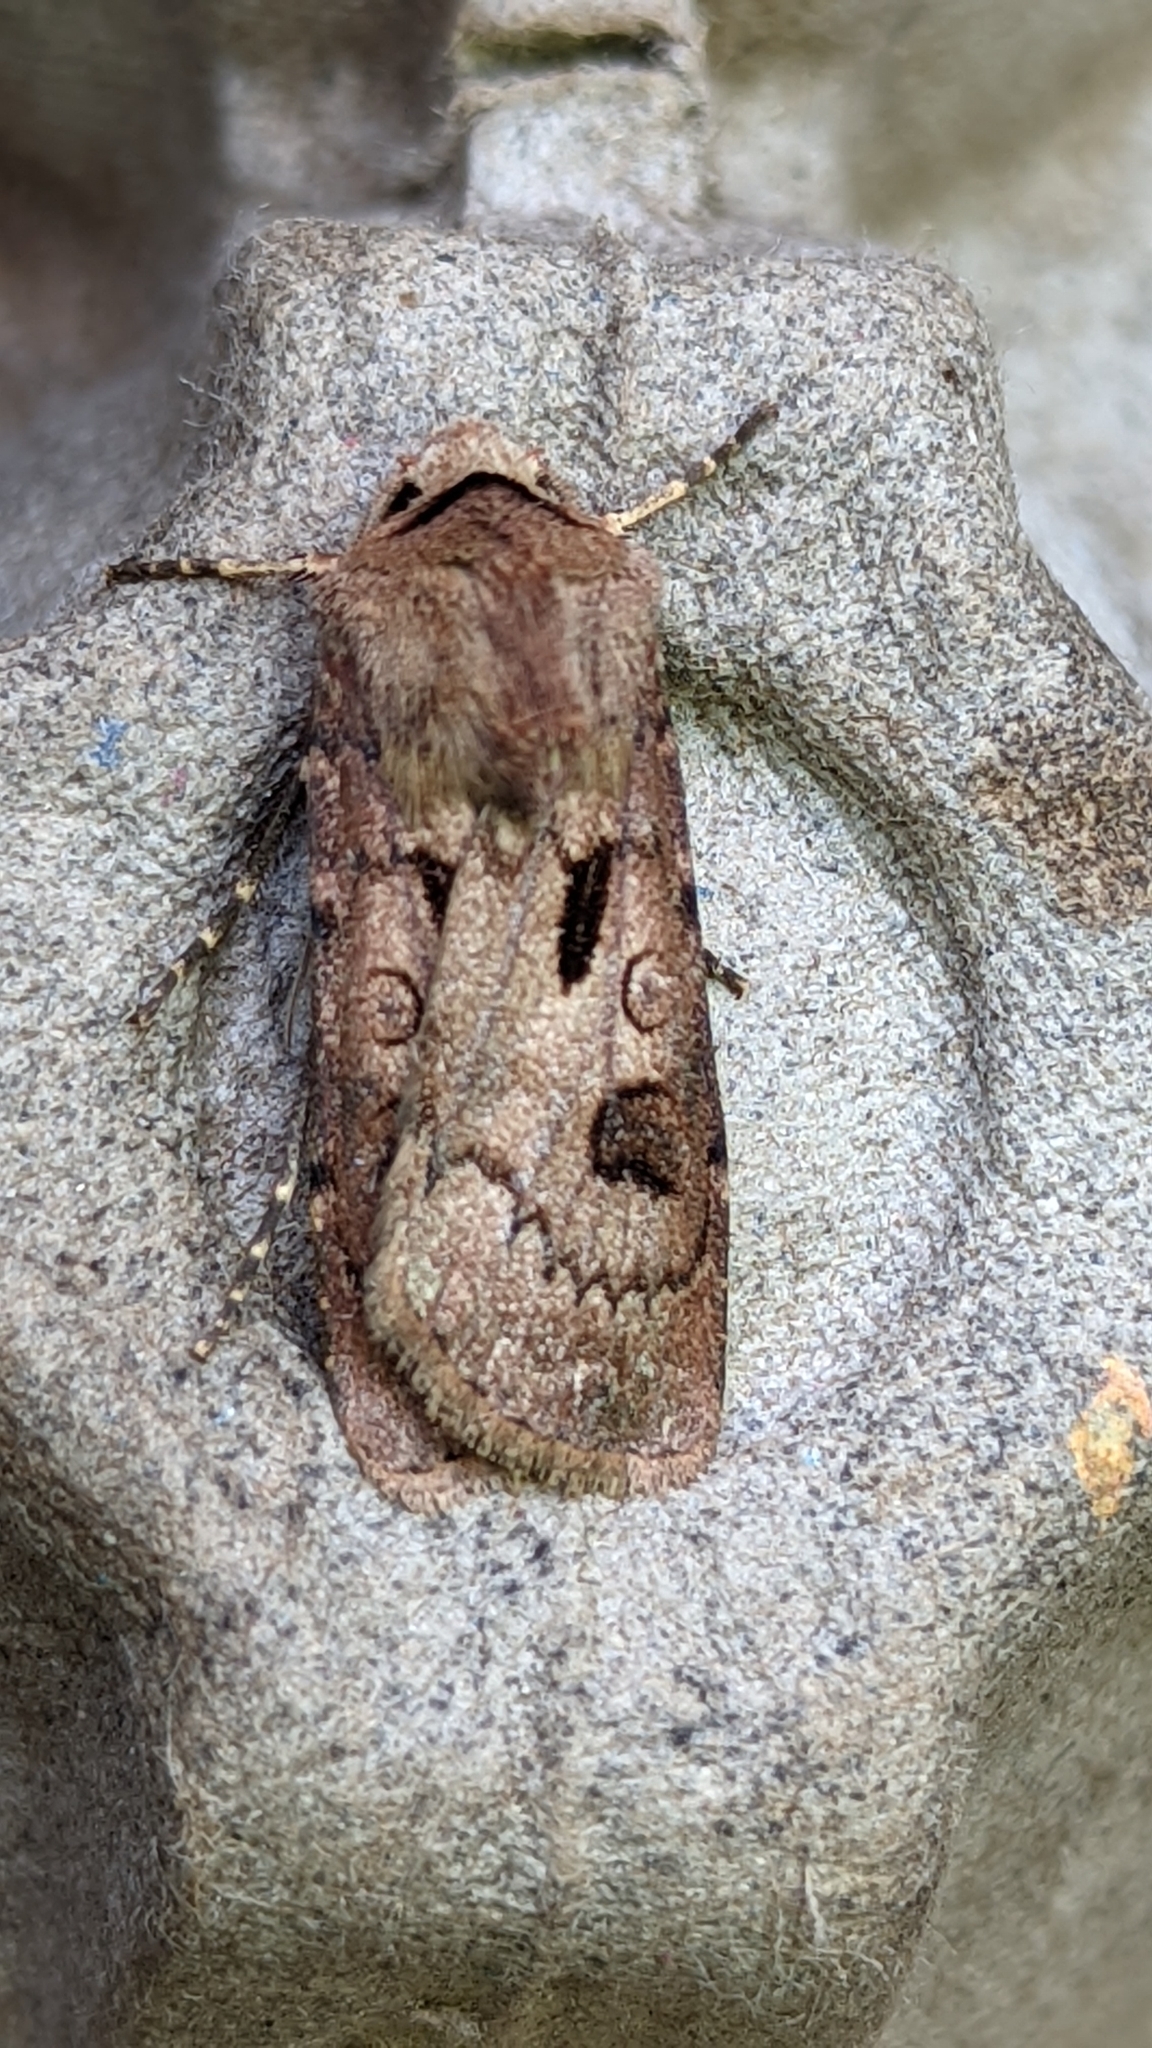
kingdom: Animalia
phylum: Arthropoda
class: Insecta
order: Lepidoptera
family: Noctuidae
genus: Agrotis
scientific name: Agrotis exclamationis
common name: Heart and dart
